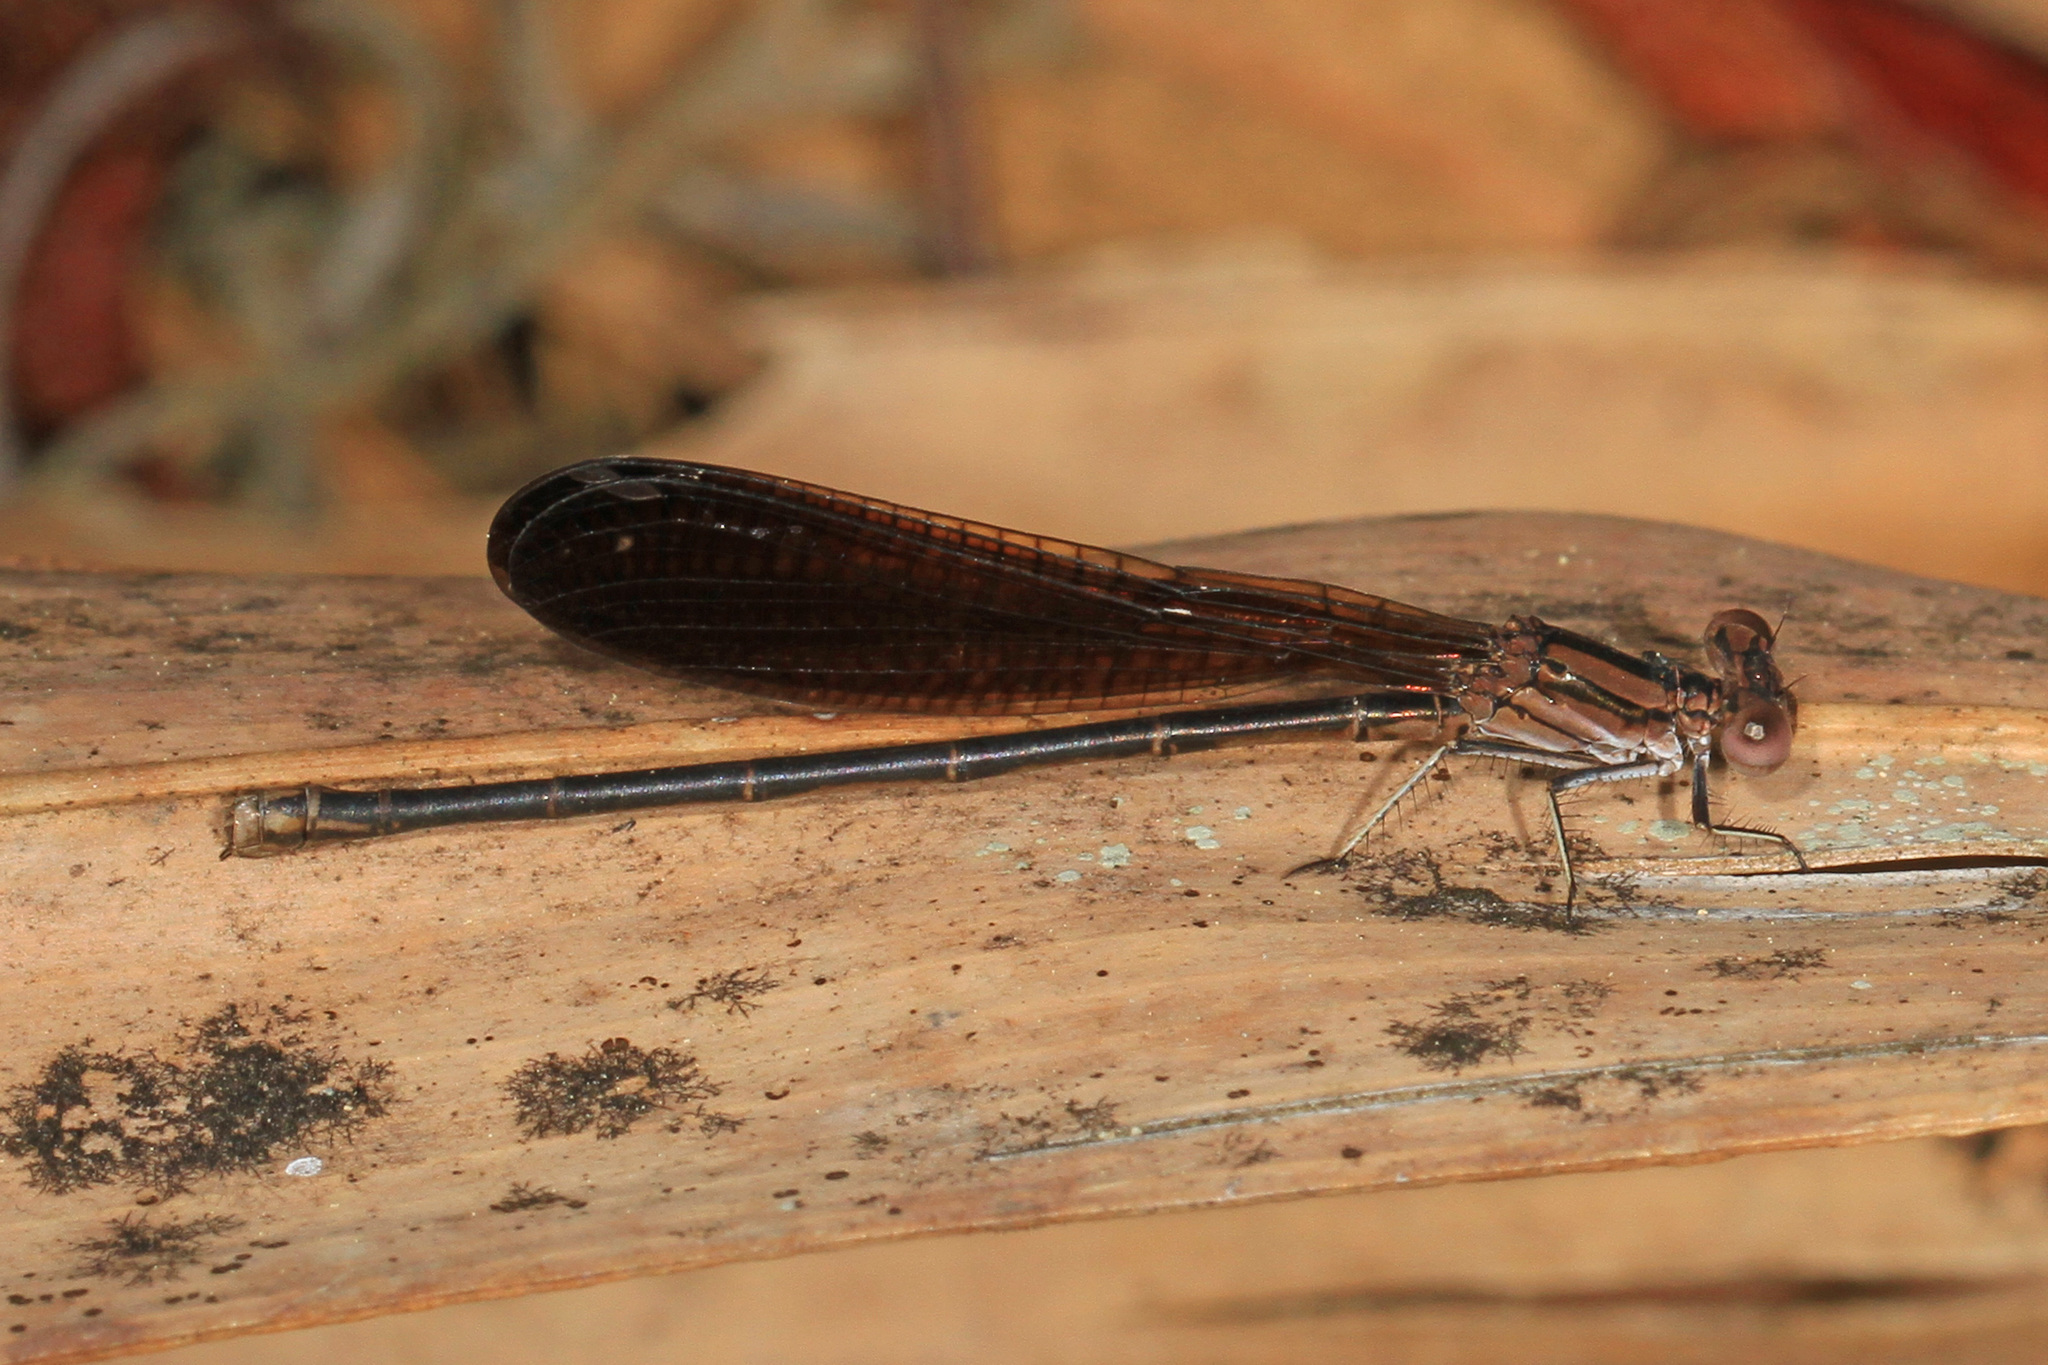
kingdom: Animalia
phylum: Arthropoda
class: Insecta
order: Odonata
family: Coenagrionidae
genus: Argia
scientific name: Argia fumipennis
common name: Variable dancer
